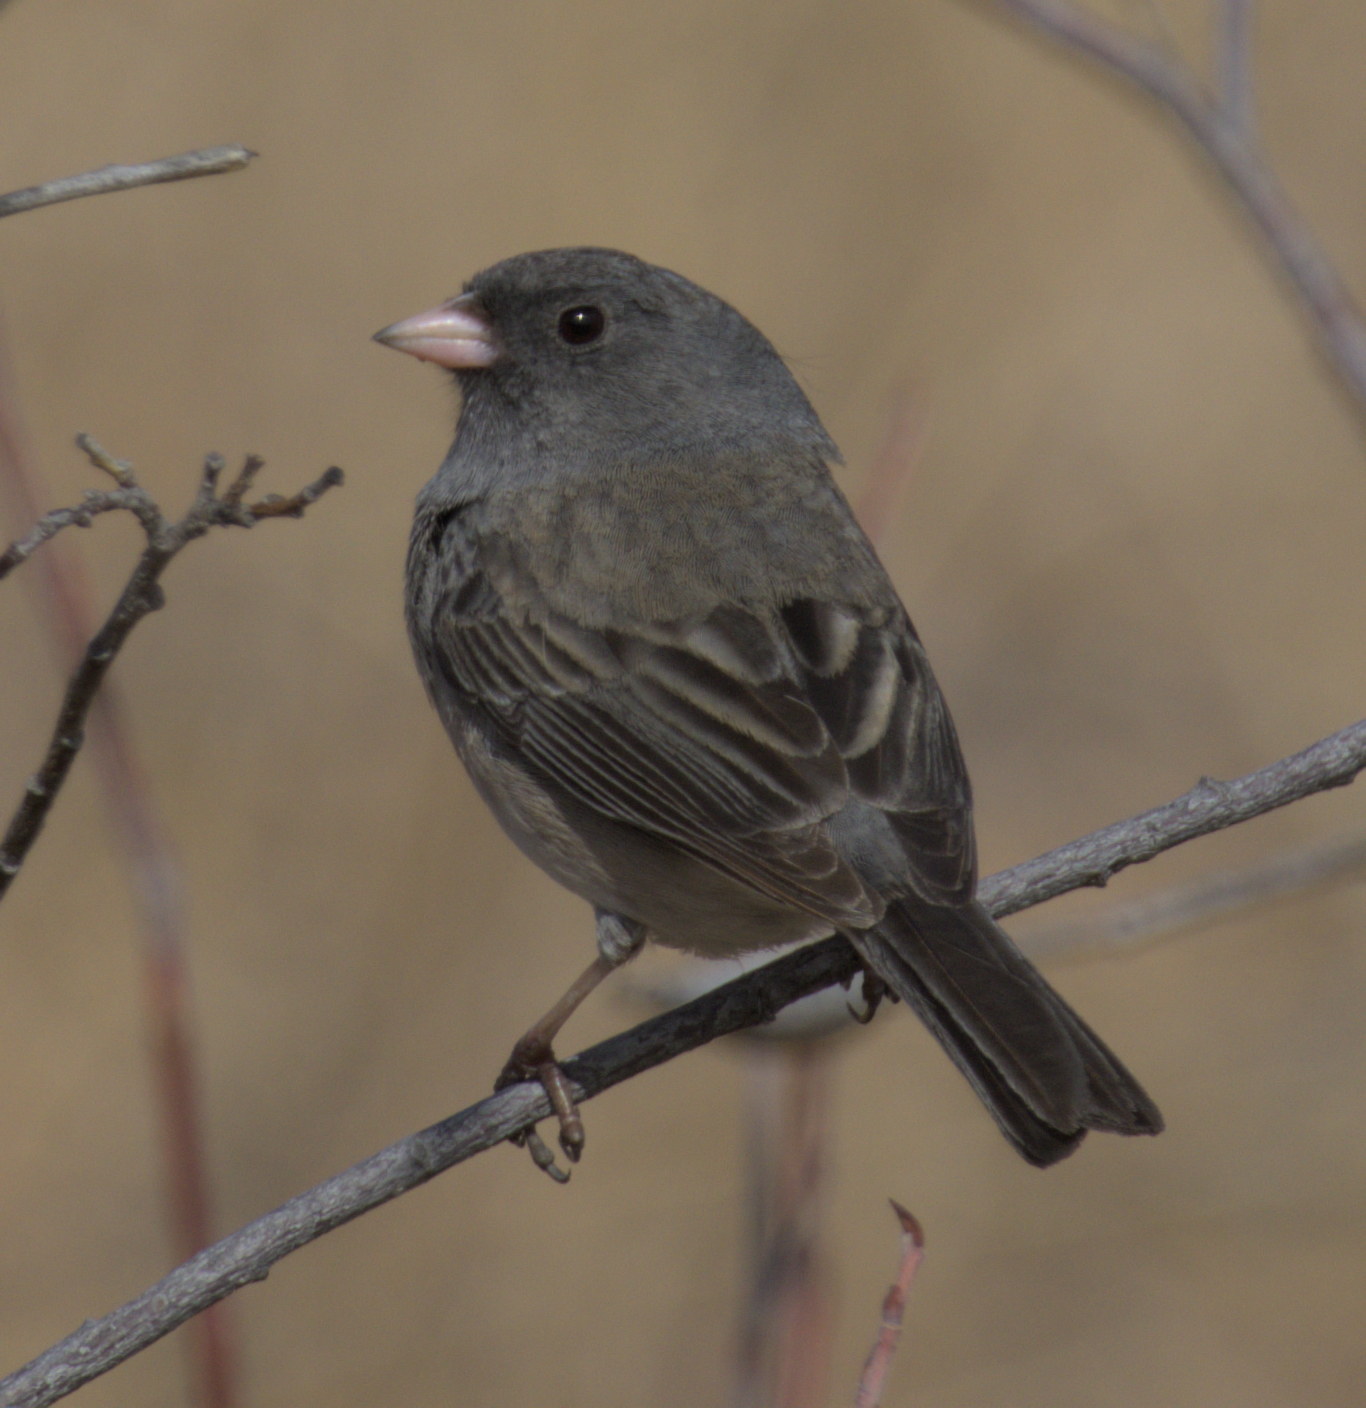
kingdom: Animalia
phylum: Chordata
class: Aves
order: Passeriformes
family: Passerellidae
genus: Junco
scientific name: Junco hyemalis
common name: Dark-eyed junco
